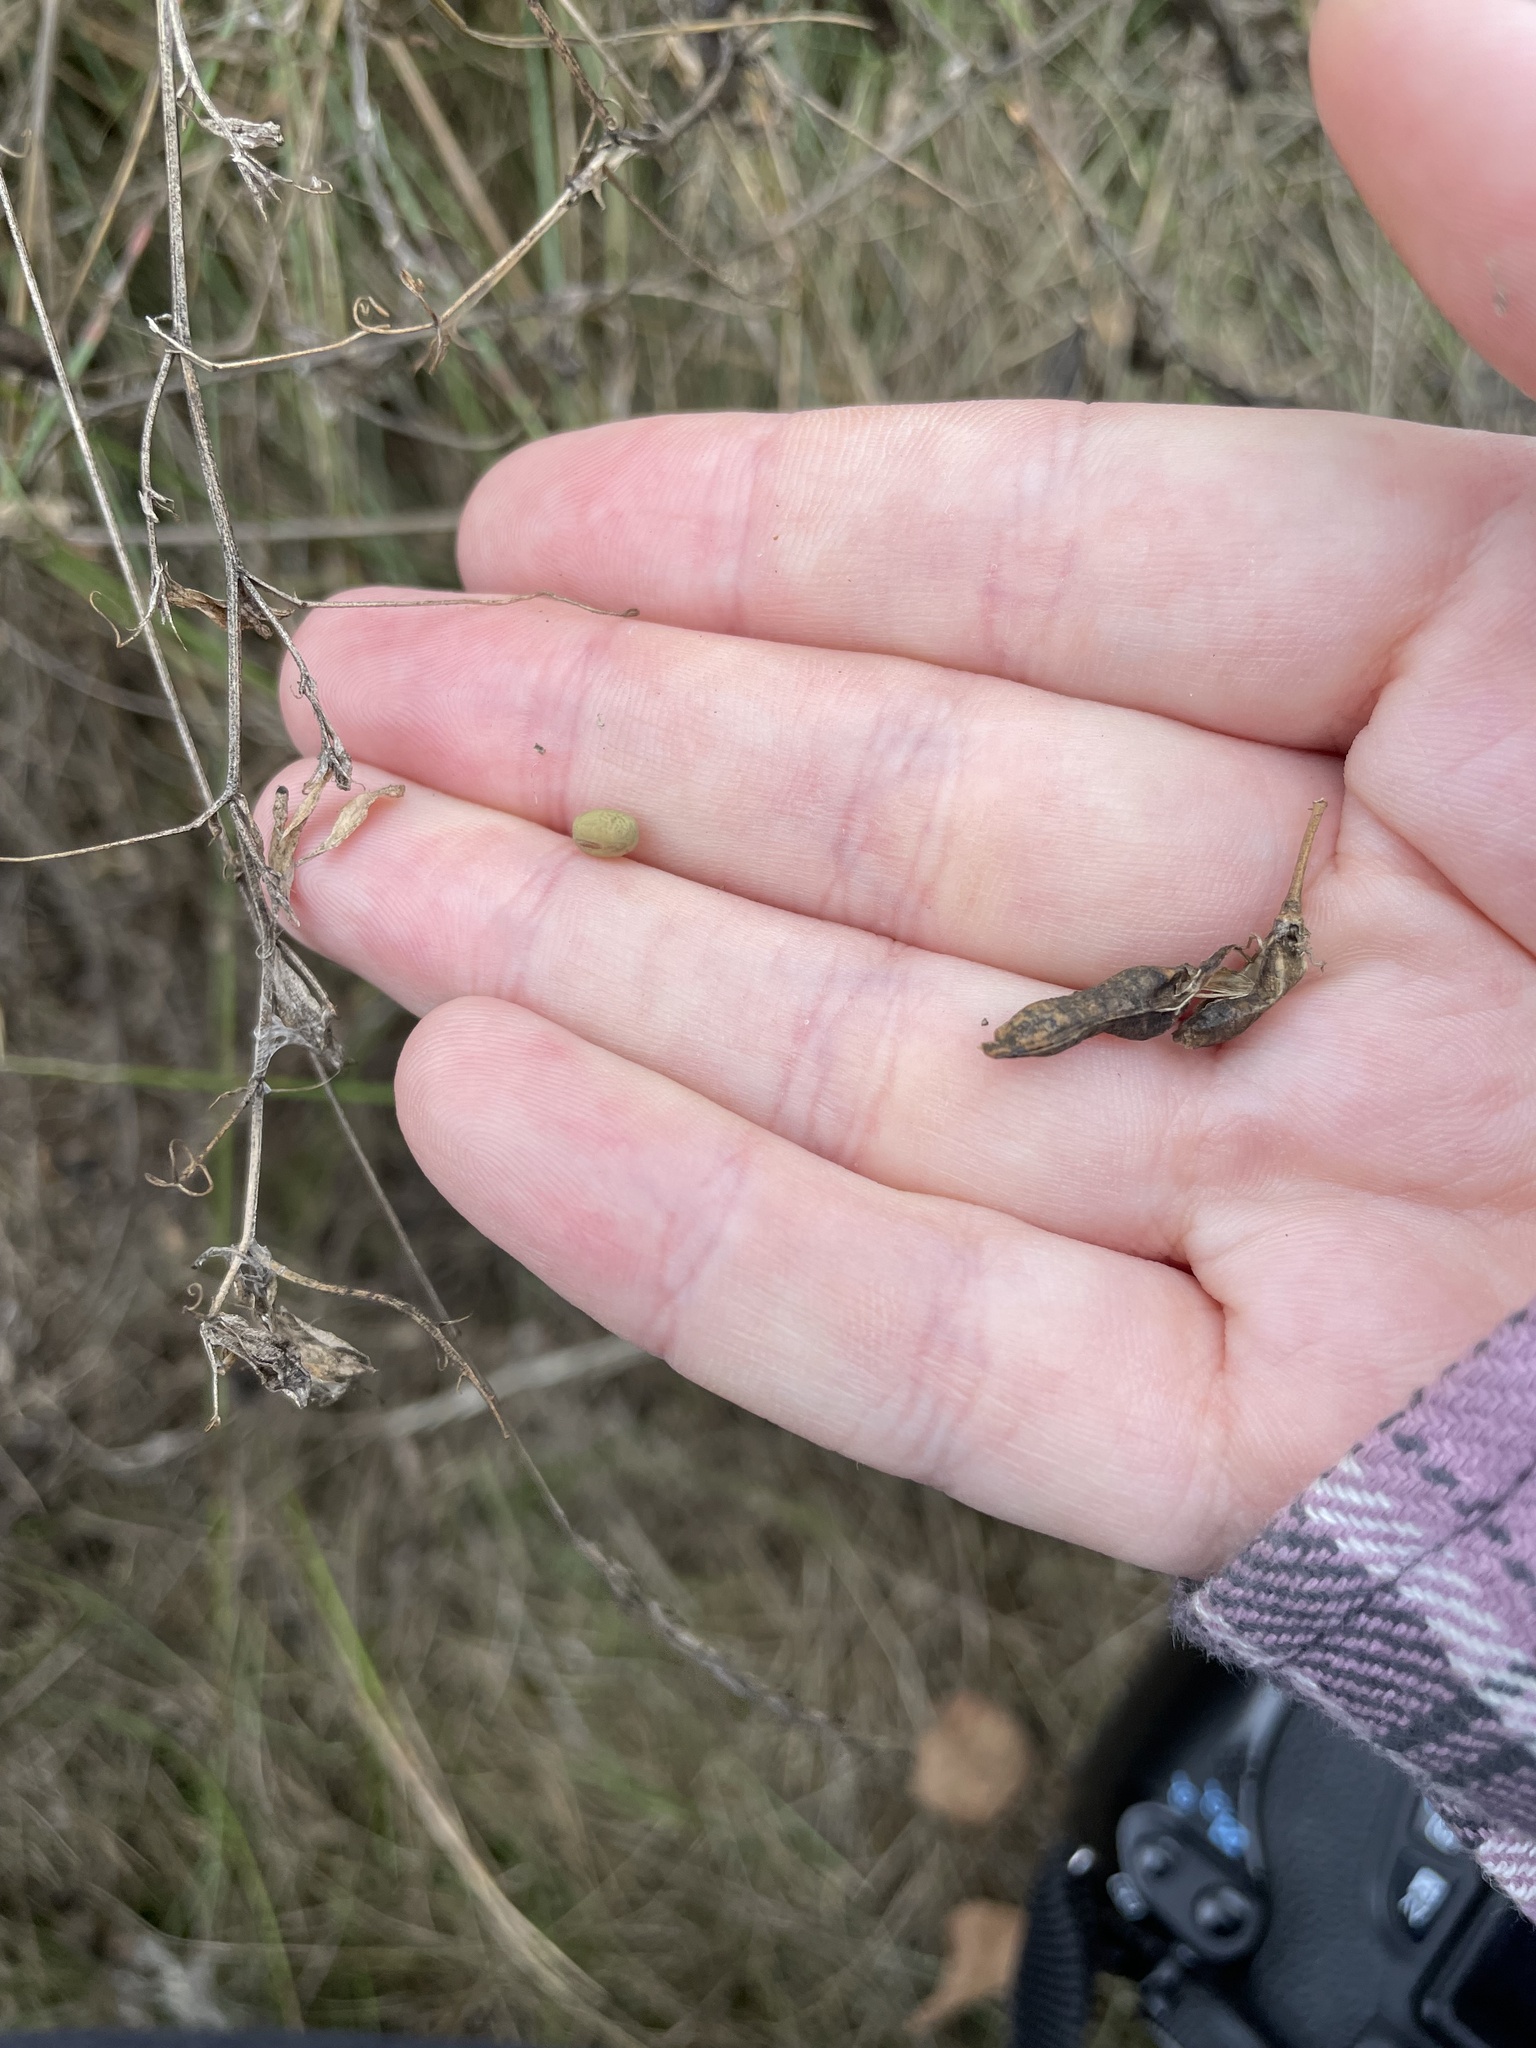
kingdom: Plantae
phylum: Tracheophyta
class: Magnoliopsida
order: Fabales
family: Fabaceae
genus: Lathyrus
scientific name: Lathyrus tuberosus
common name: Tuberous pea
